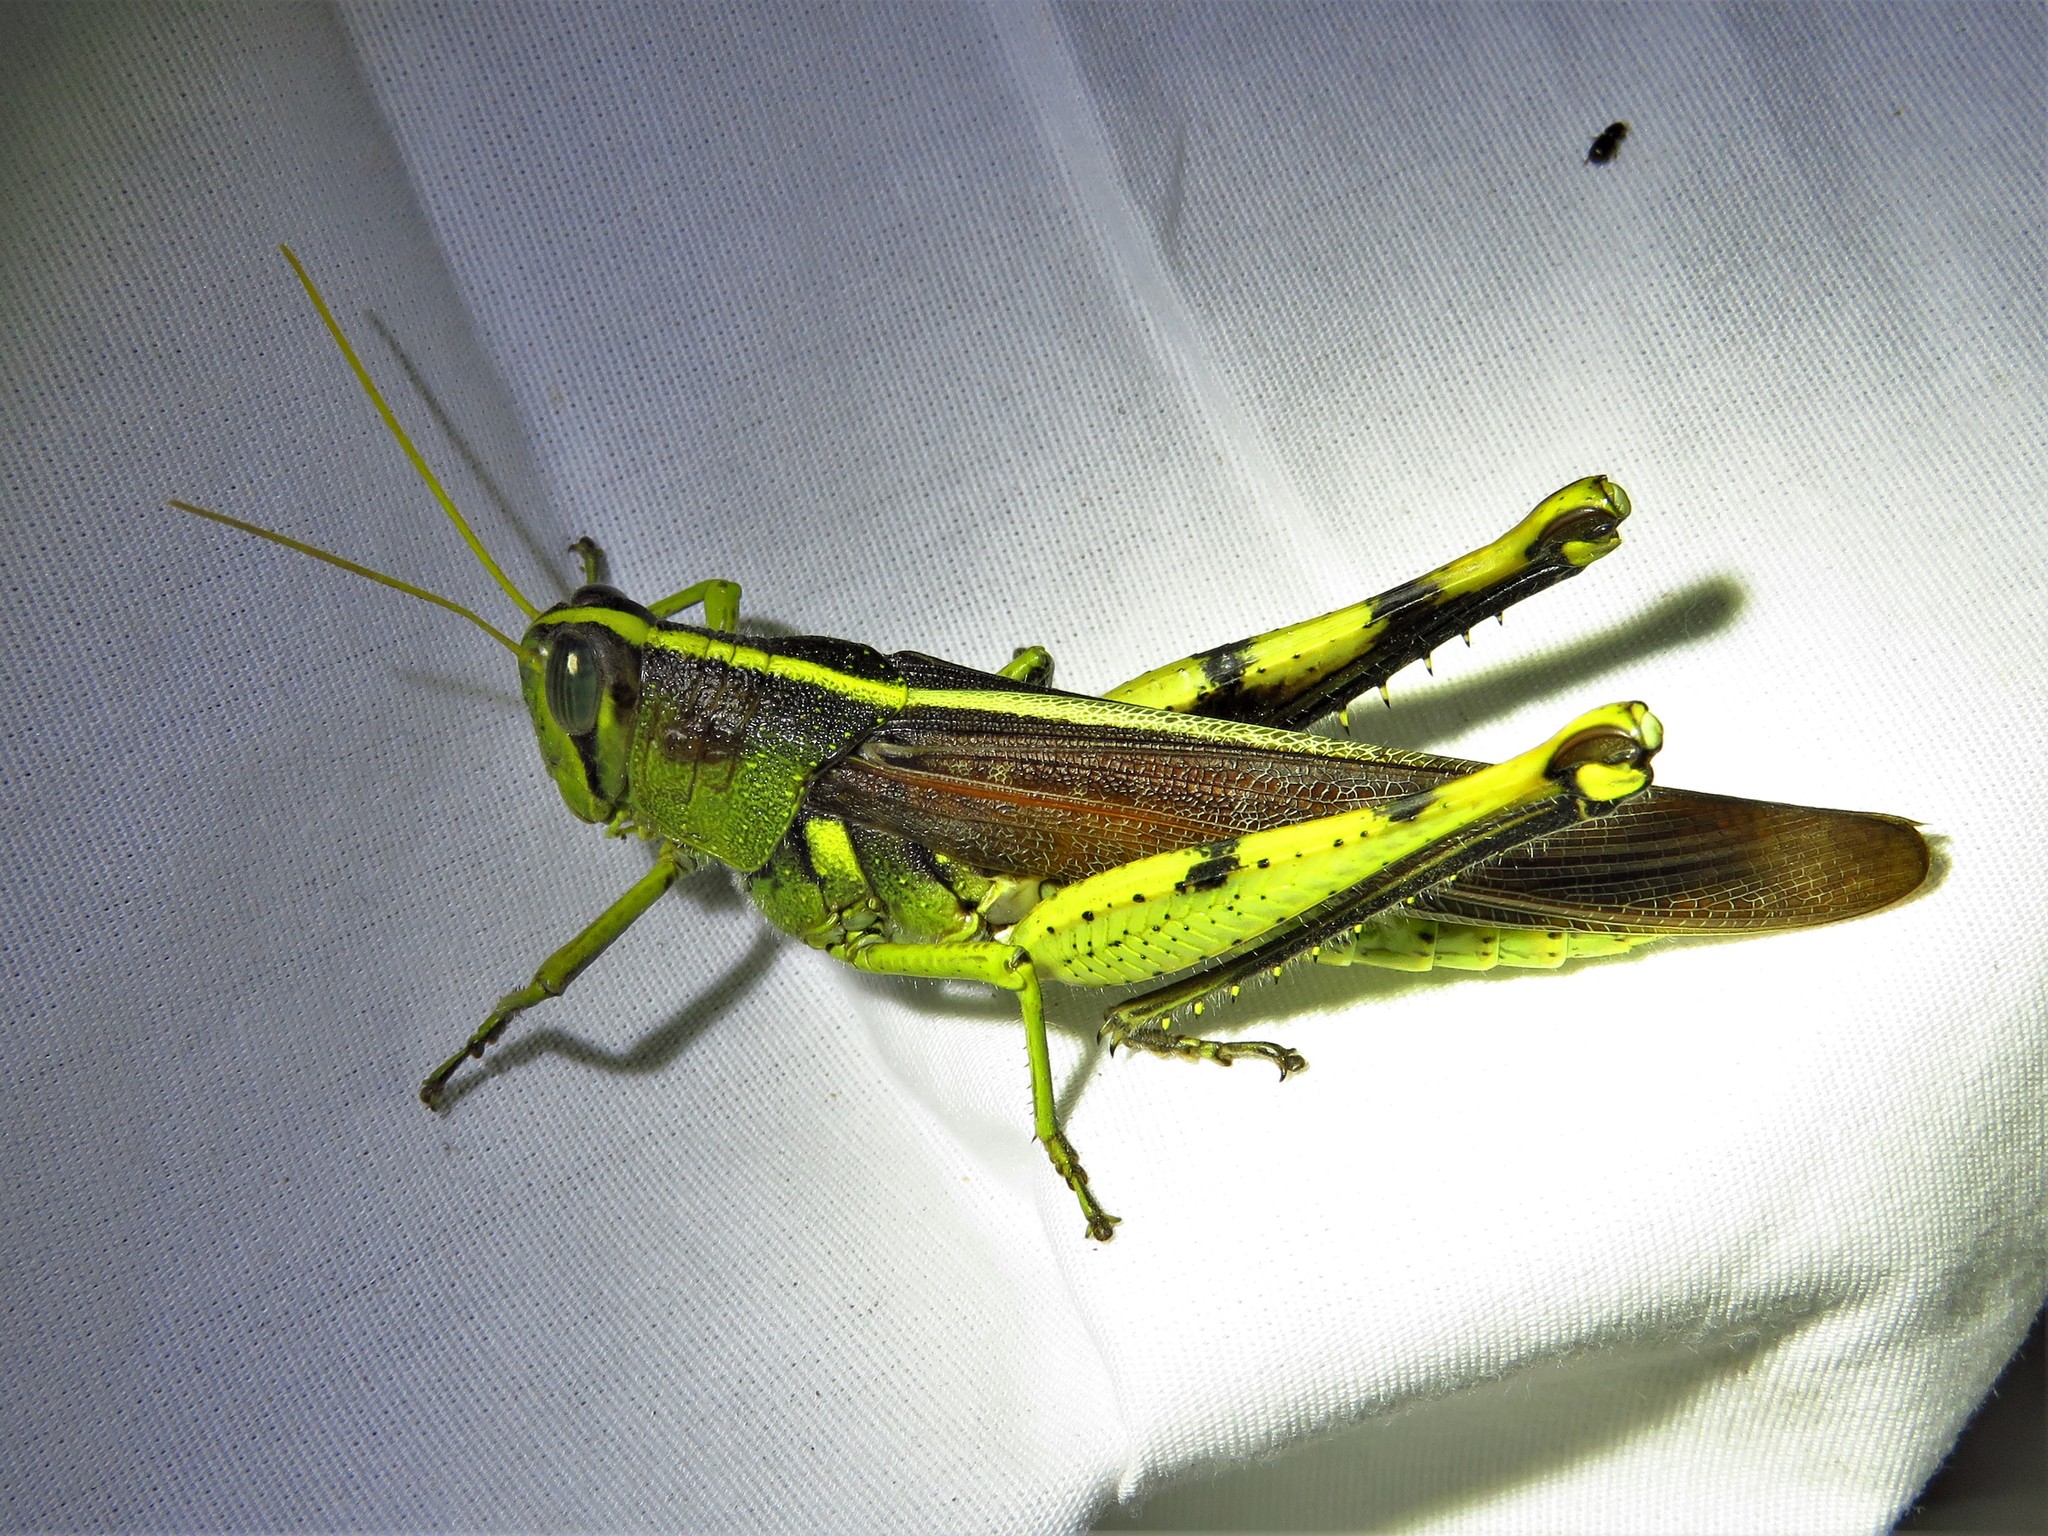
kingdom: Animalia
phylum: Arthropoda
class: Insecta
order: Orthoptera
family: Acrididae
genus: Schistocerca
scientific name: Schistocerca obscura
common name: Obscure bird grasshopper
